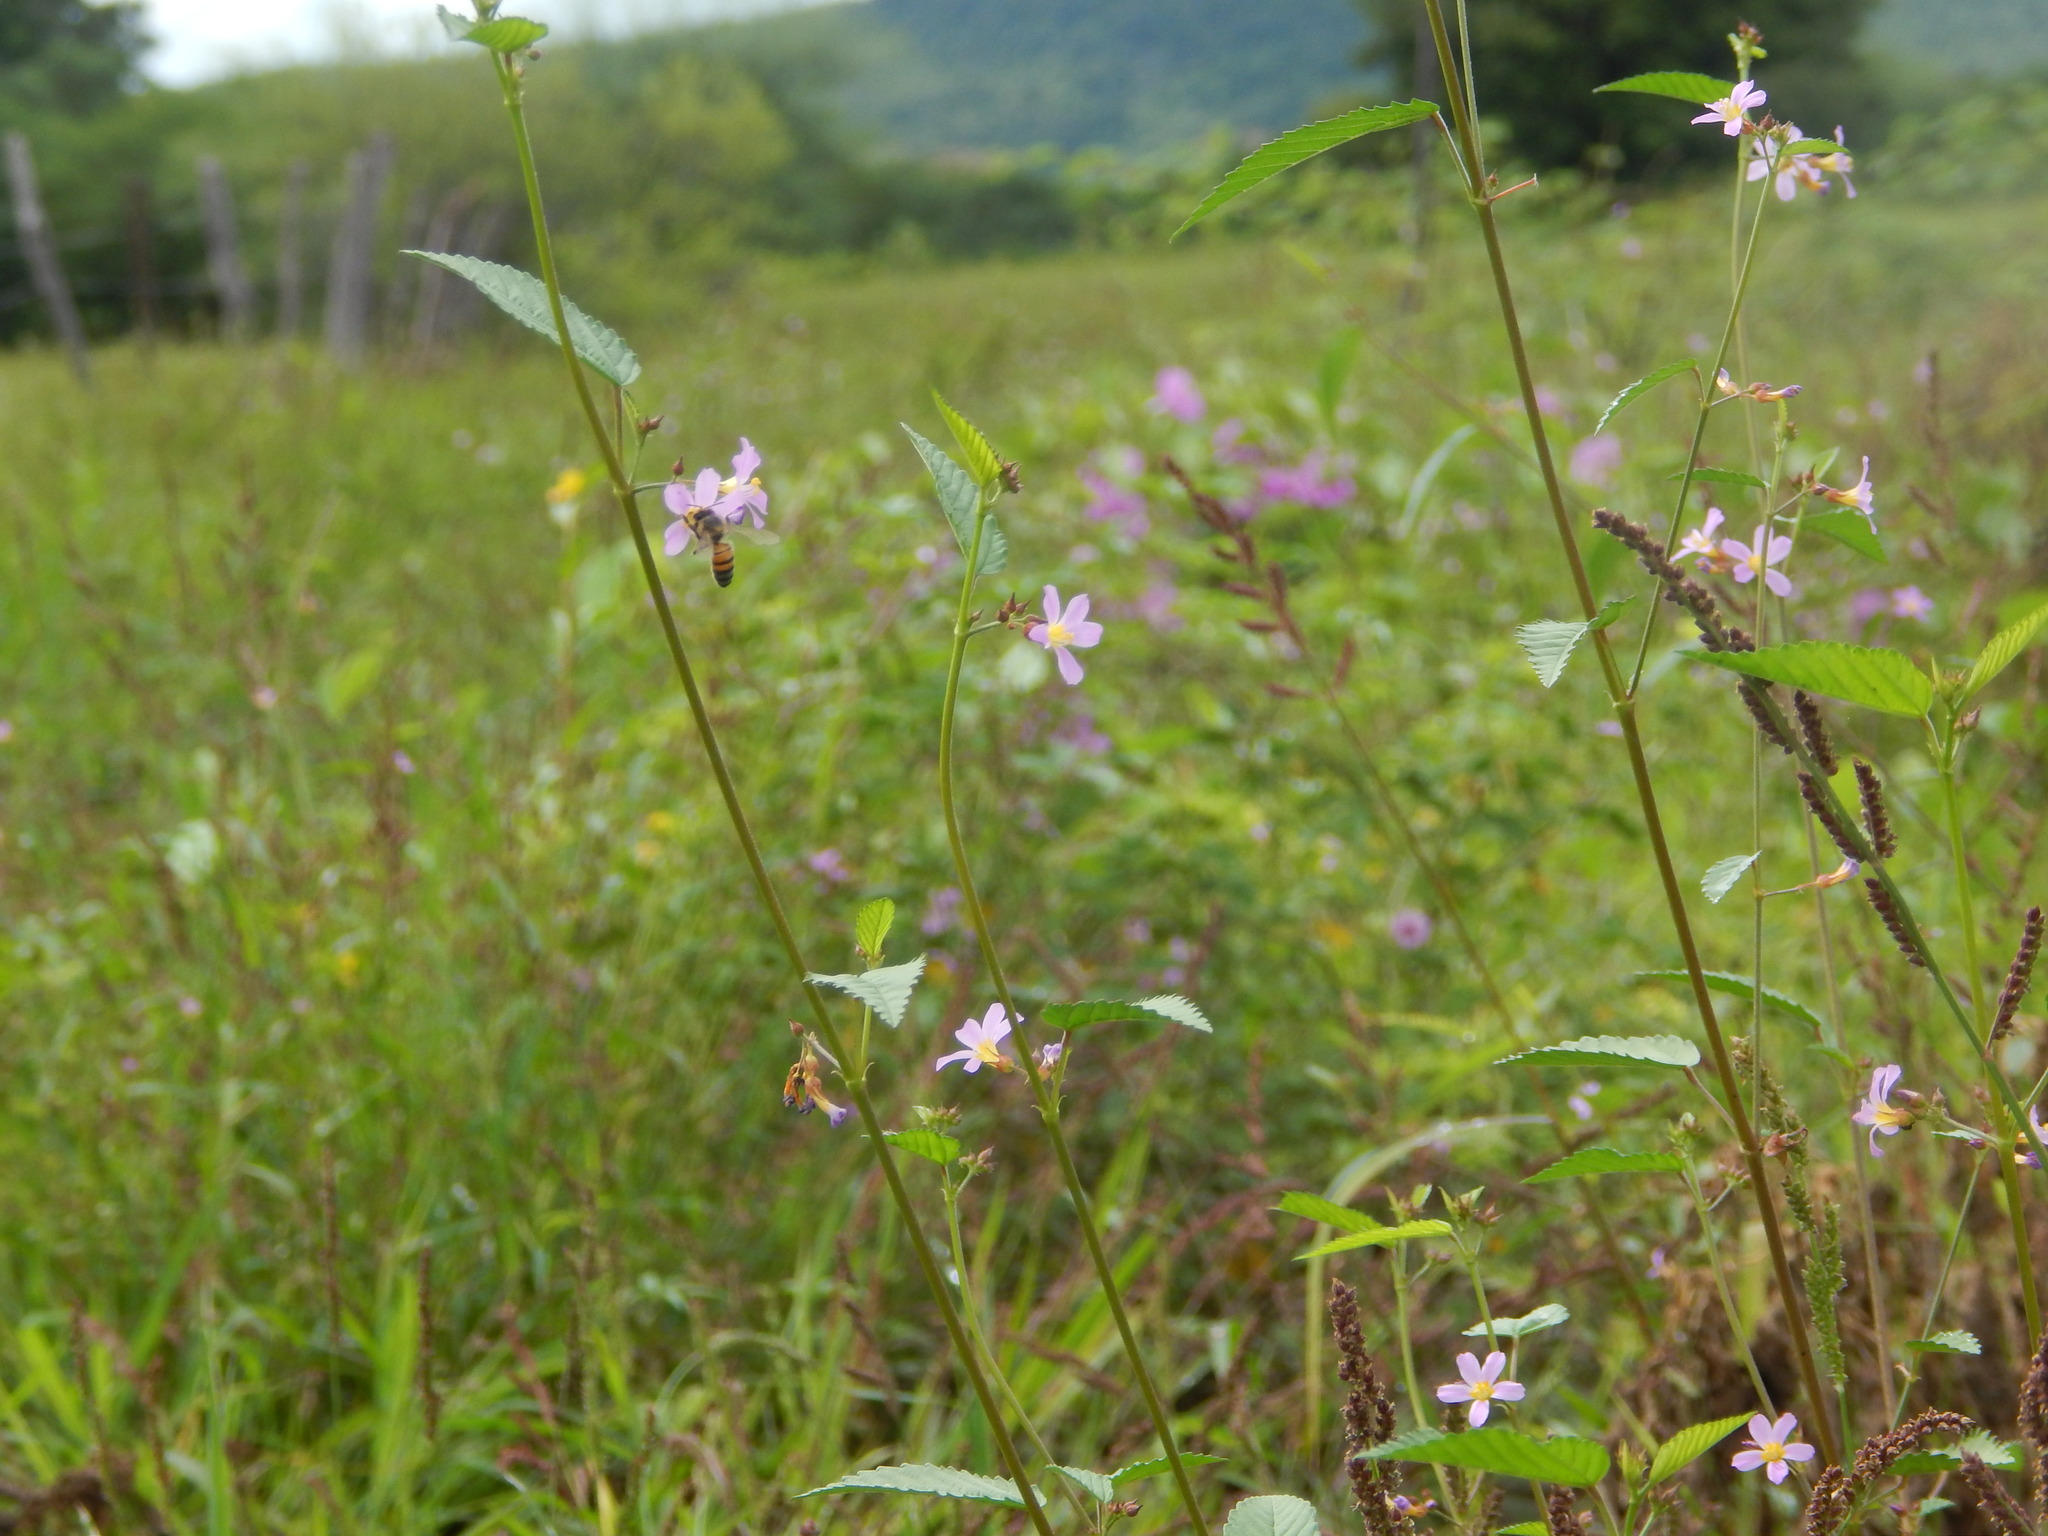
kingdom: Plantae
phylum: Tracheophyta
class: Magnoliopsida
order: Malvales
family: Malvaceae
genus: Melochia
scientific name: Melochia pyramidata
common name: Pyramidflower
